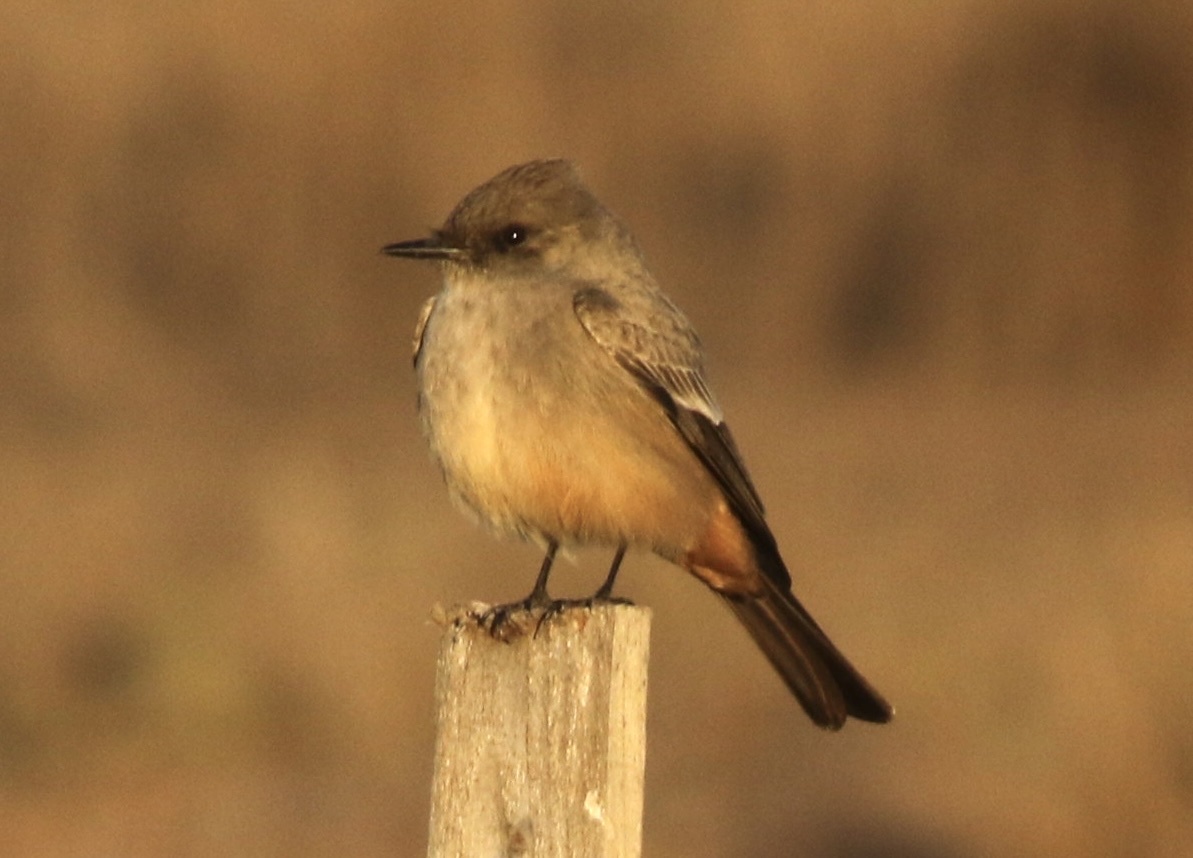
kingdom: Animalia
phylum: Chordata
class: Aves
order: Passeriformes
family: Tyrannidae
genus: Sayornis
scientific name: Sayornis saya
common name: Say's phoebe
